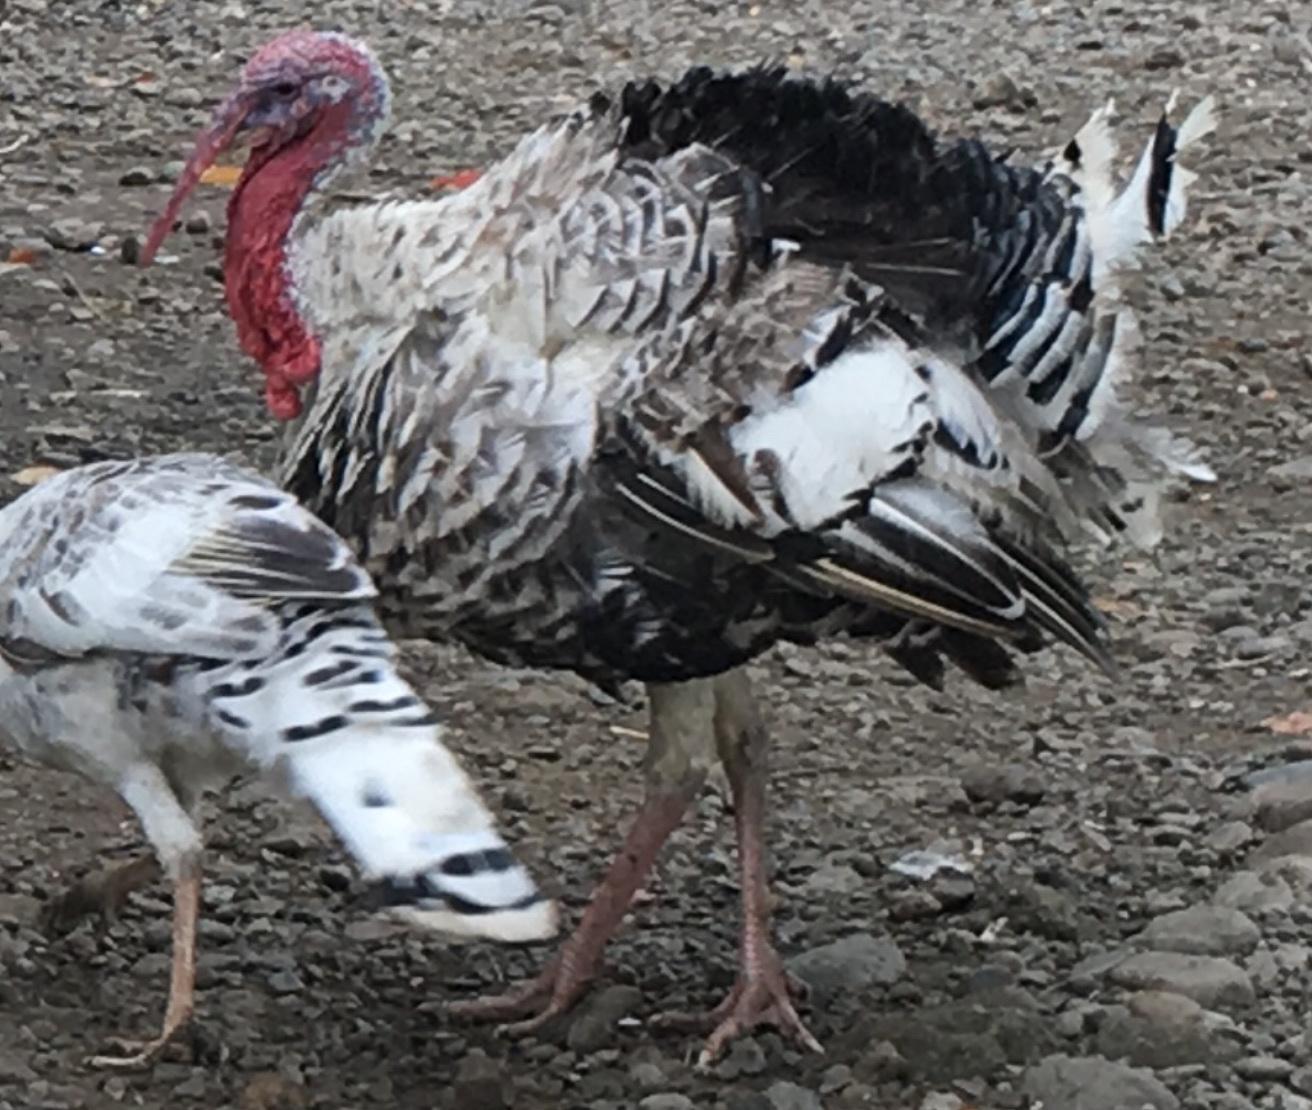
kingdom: Animalia
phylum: Chordata
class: Aves
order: Galliformes
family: Phasianidae
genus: Meleagris
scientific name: Meleagris gallopavo
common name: Wild turkey
